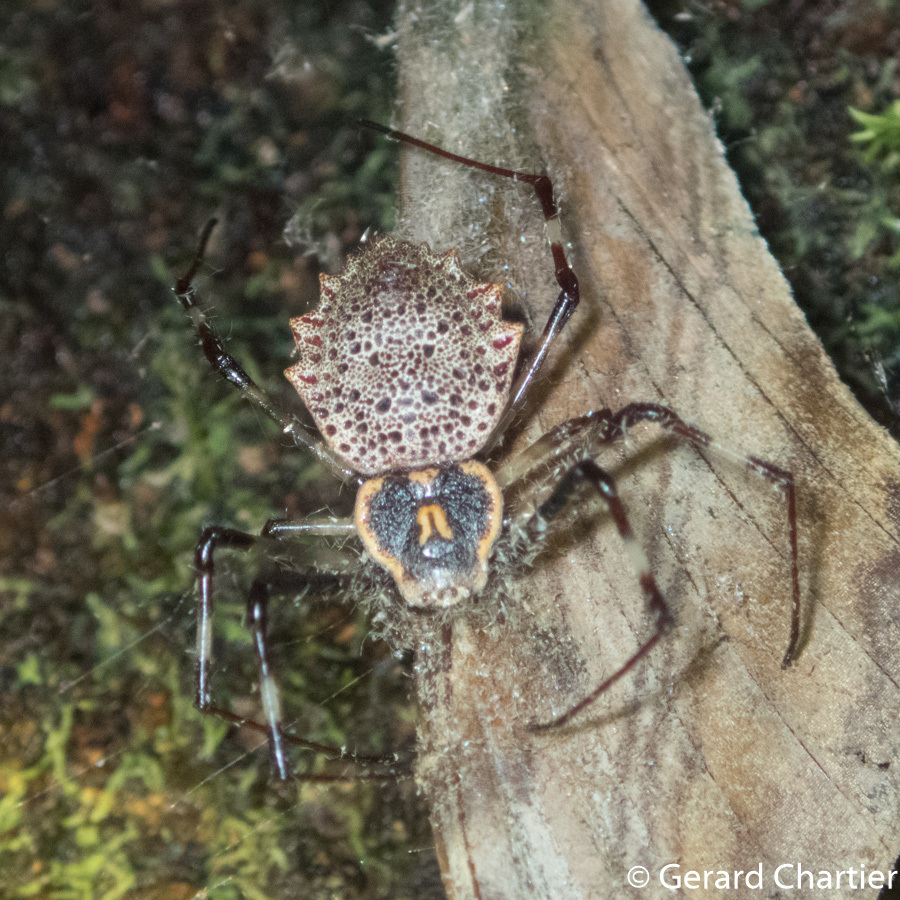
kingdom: Animalia
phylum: Arthropoda
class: Arachnida
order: Araneae
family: Araneidae
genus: Herennia
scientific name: Herennia multipuncta
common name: Spotted coin spider
